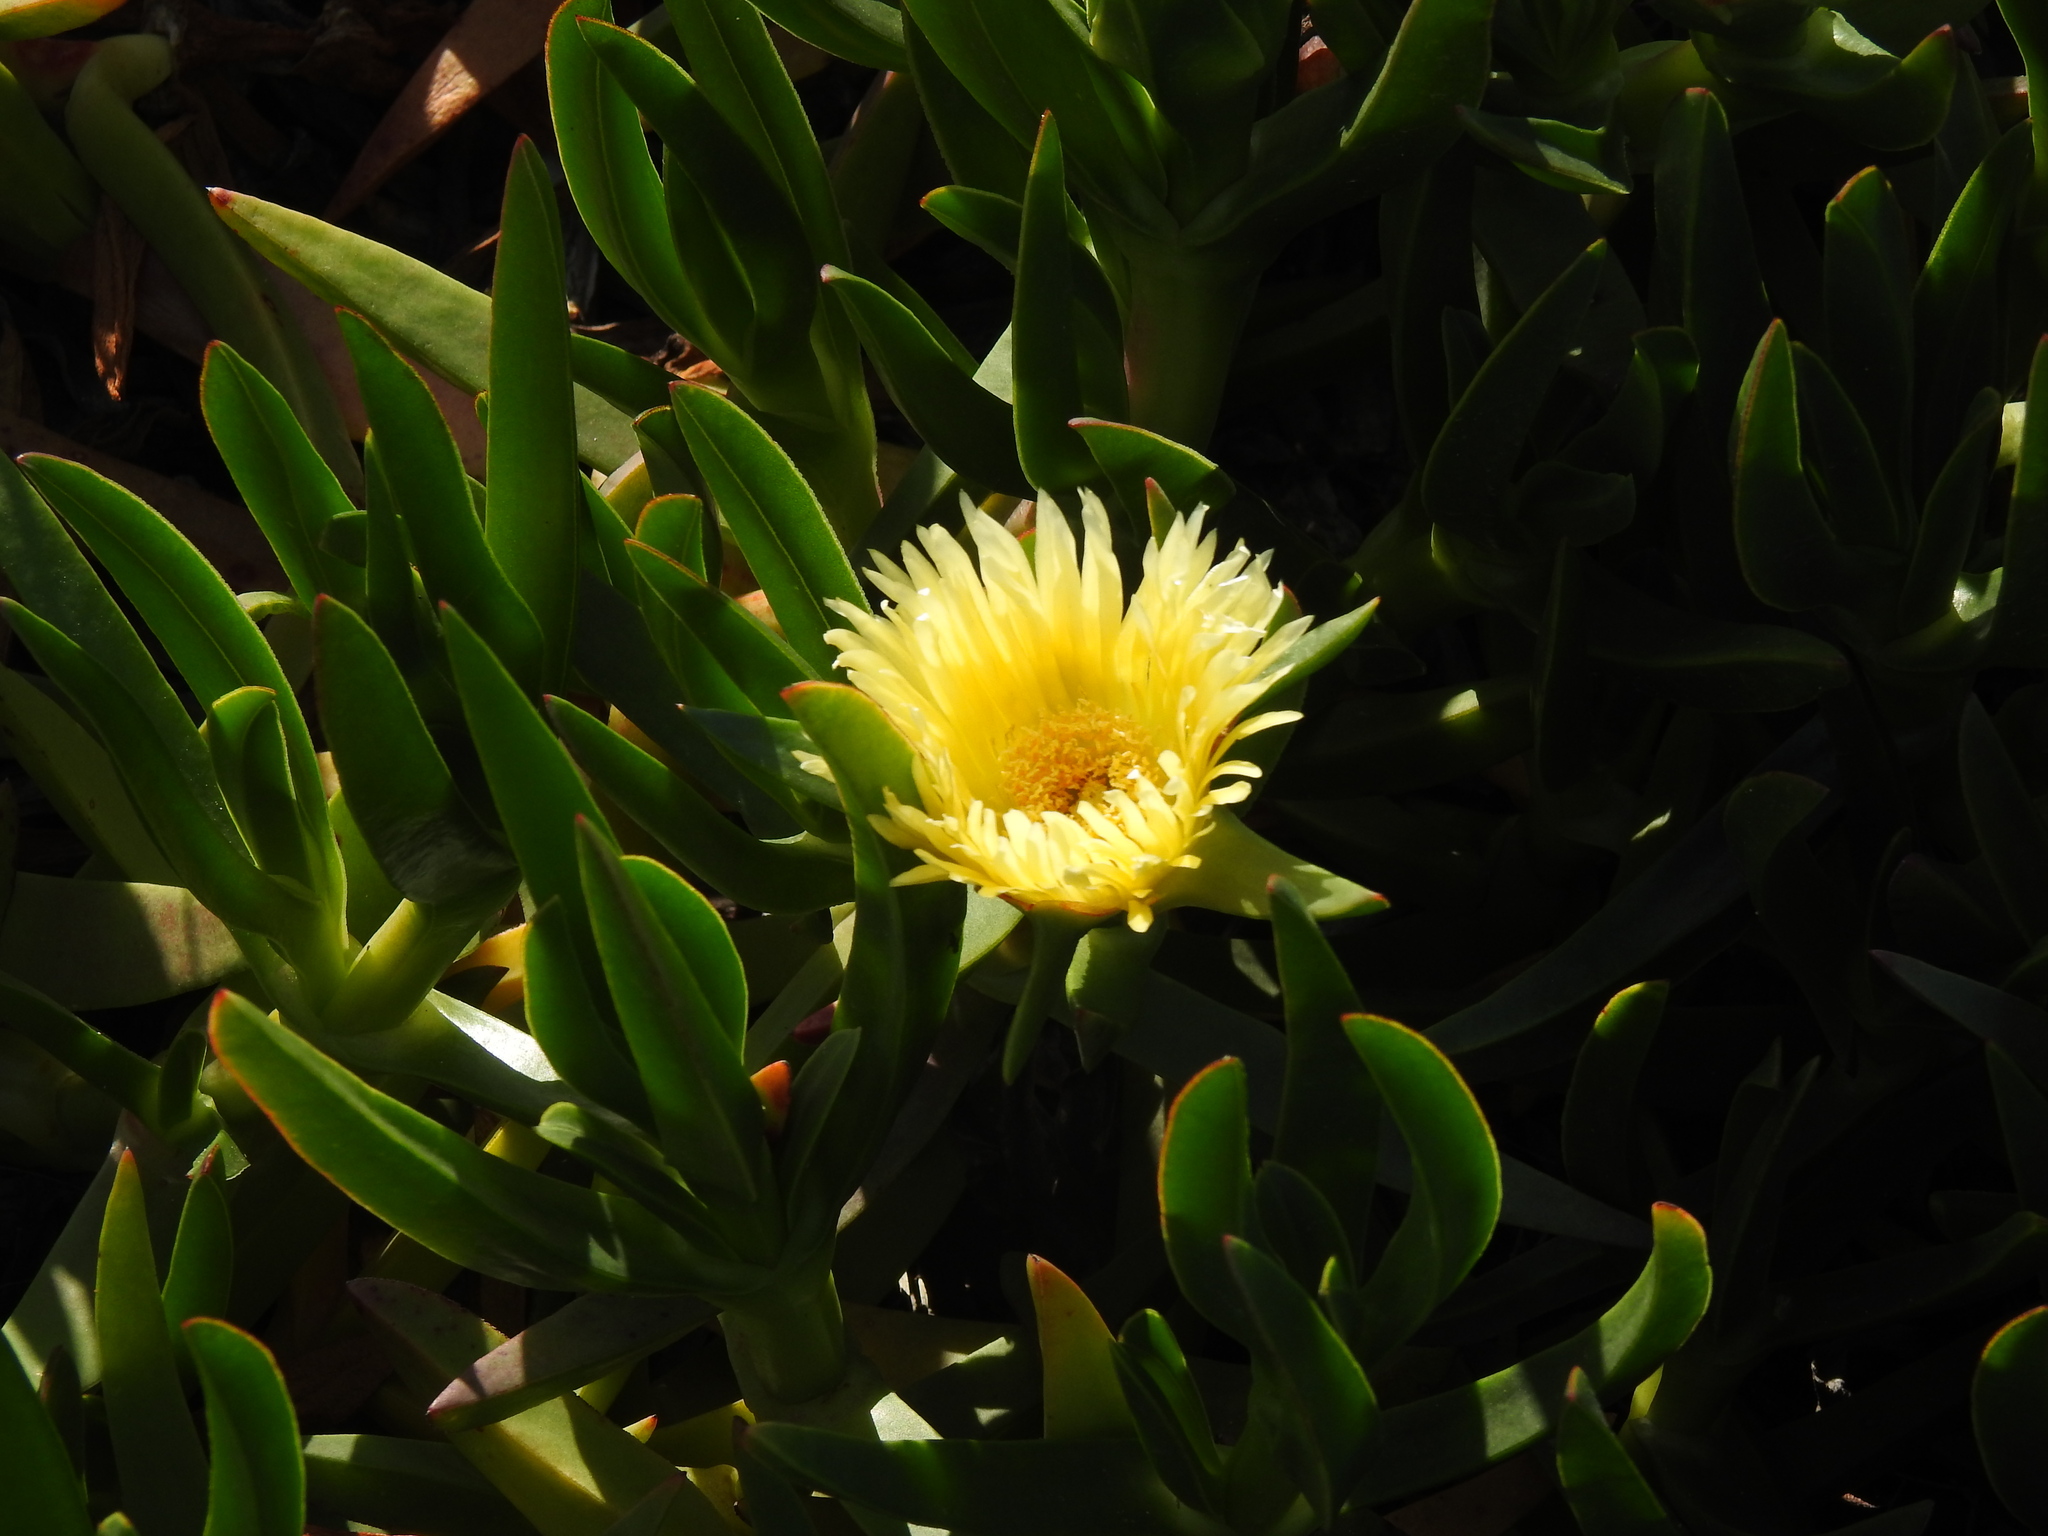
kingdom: Plantae
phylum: Tracheophyta
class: Magnoliopsida
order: Caryophyllales
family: Aizoaceae
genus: Carpobrotus
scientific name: Carpobrotus edulis
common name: Hottentot-fig
